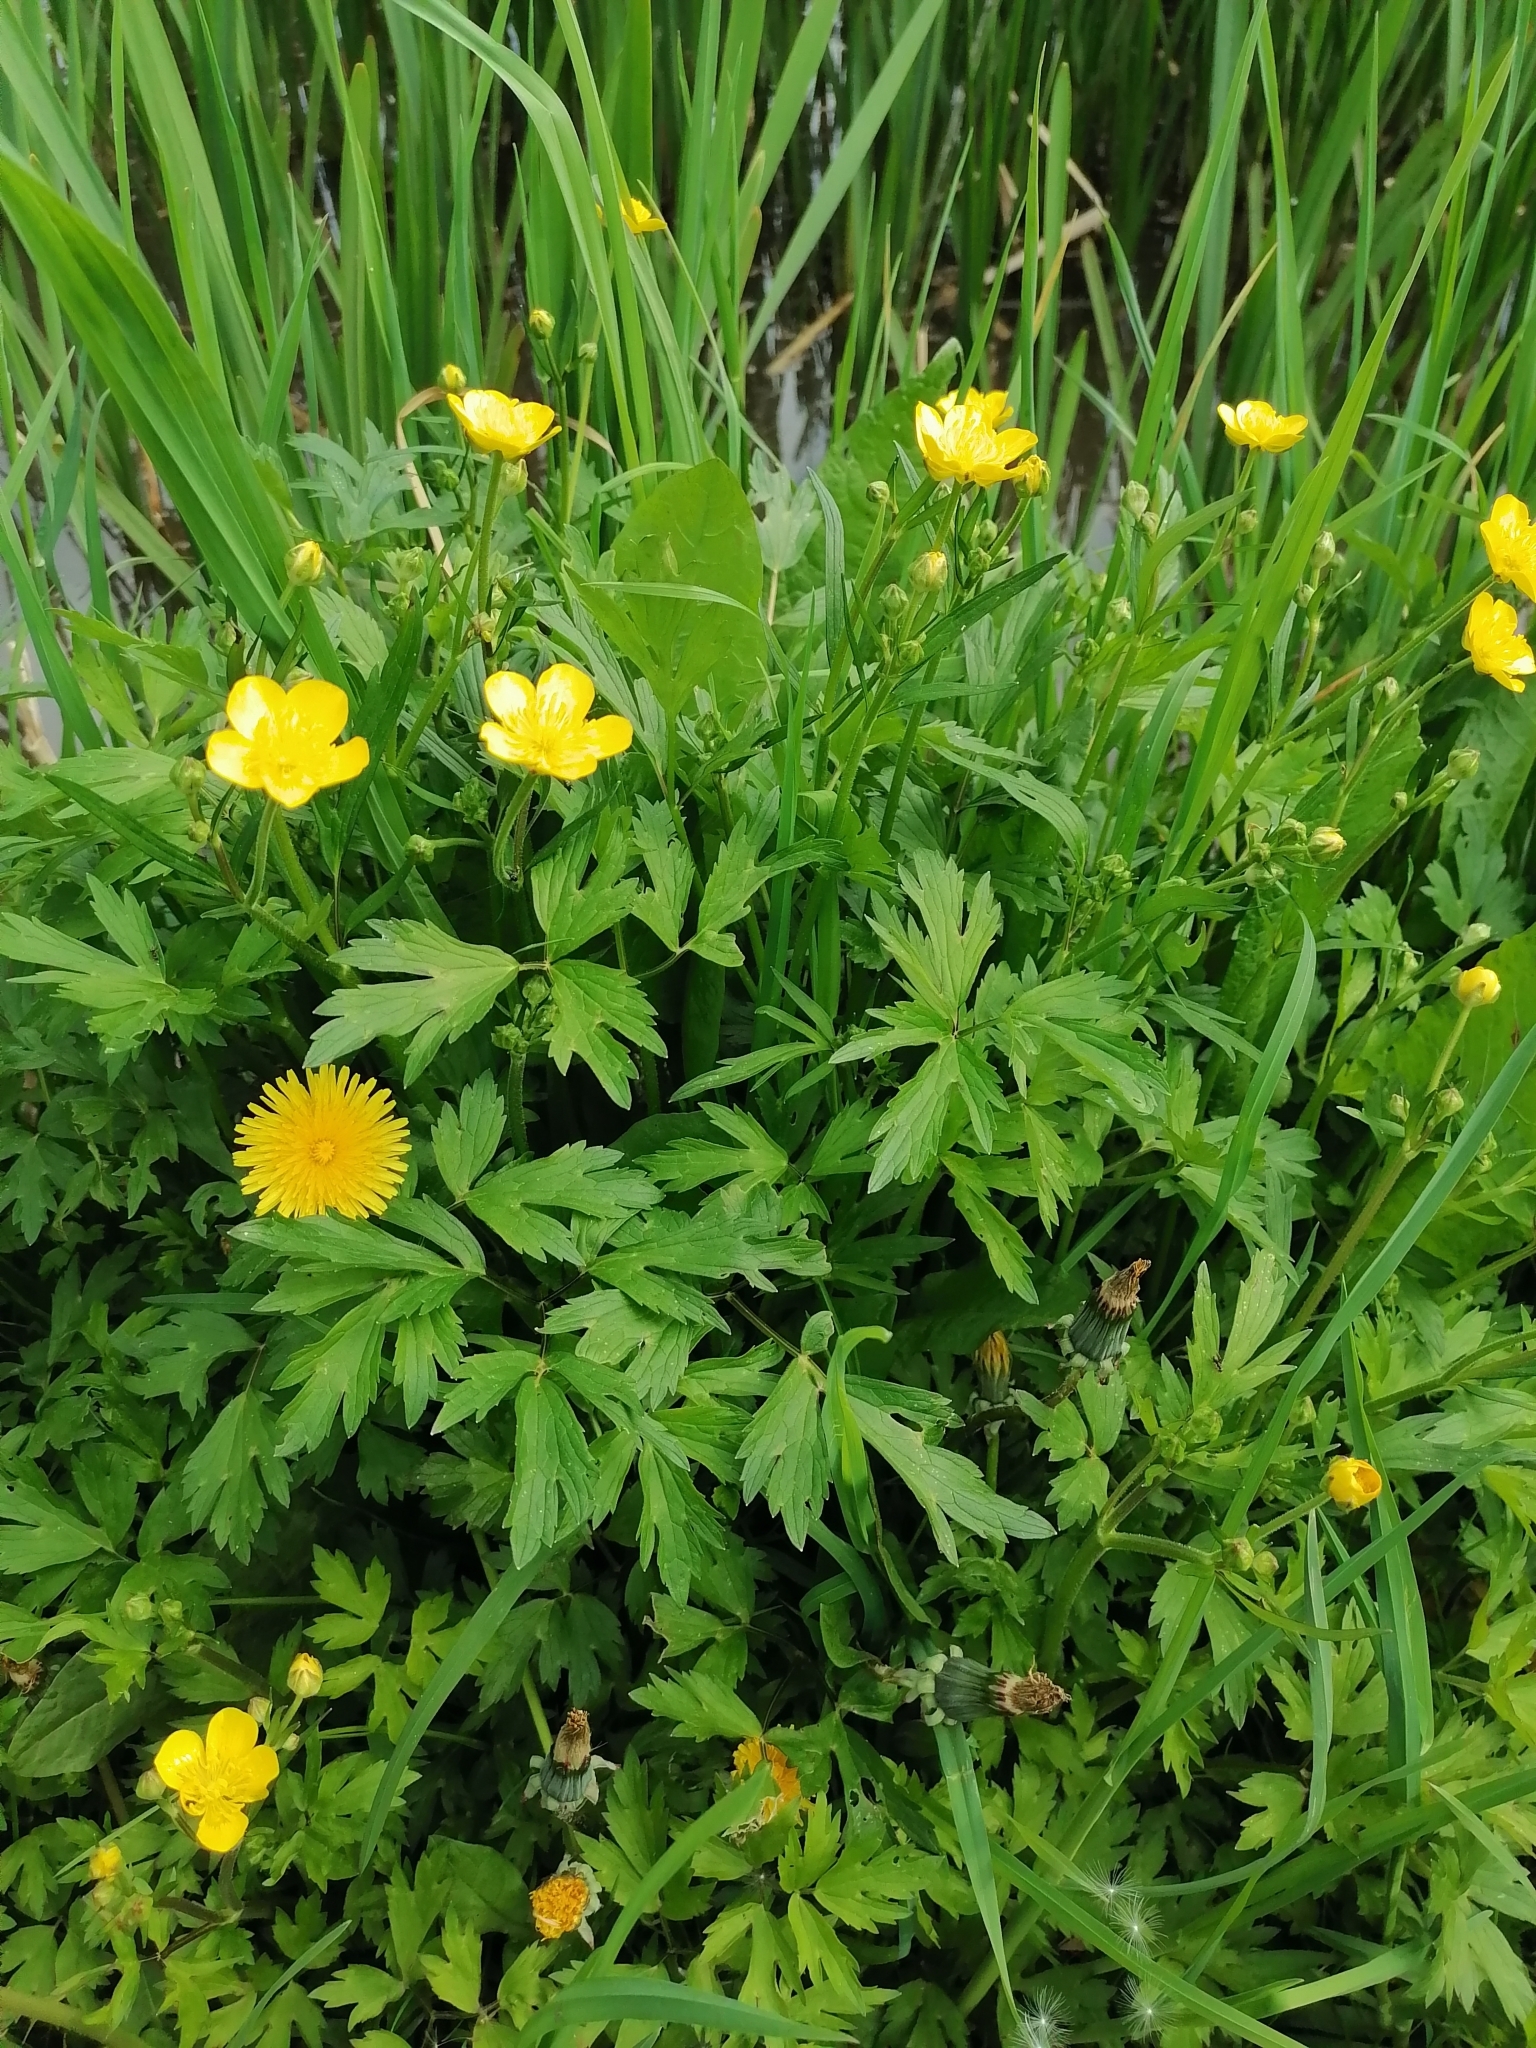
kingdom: Plantae
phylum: Tracheophyta
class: Magnoliopsida
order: Ranunculales
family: Ranunculaceae
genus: Ranunculus
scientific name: Ranunculus repens
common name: Creeping buttercup
